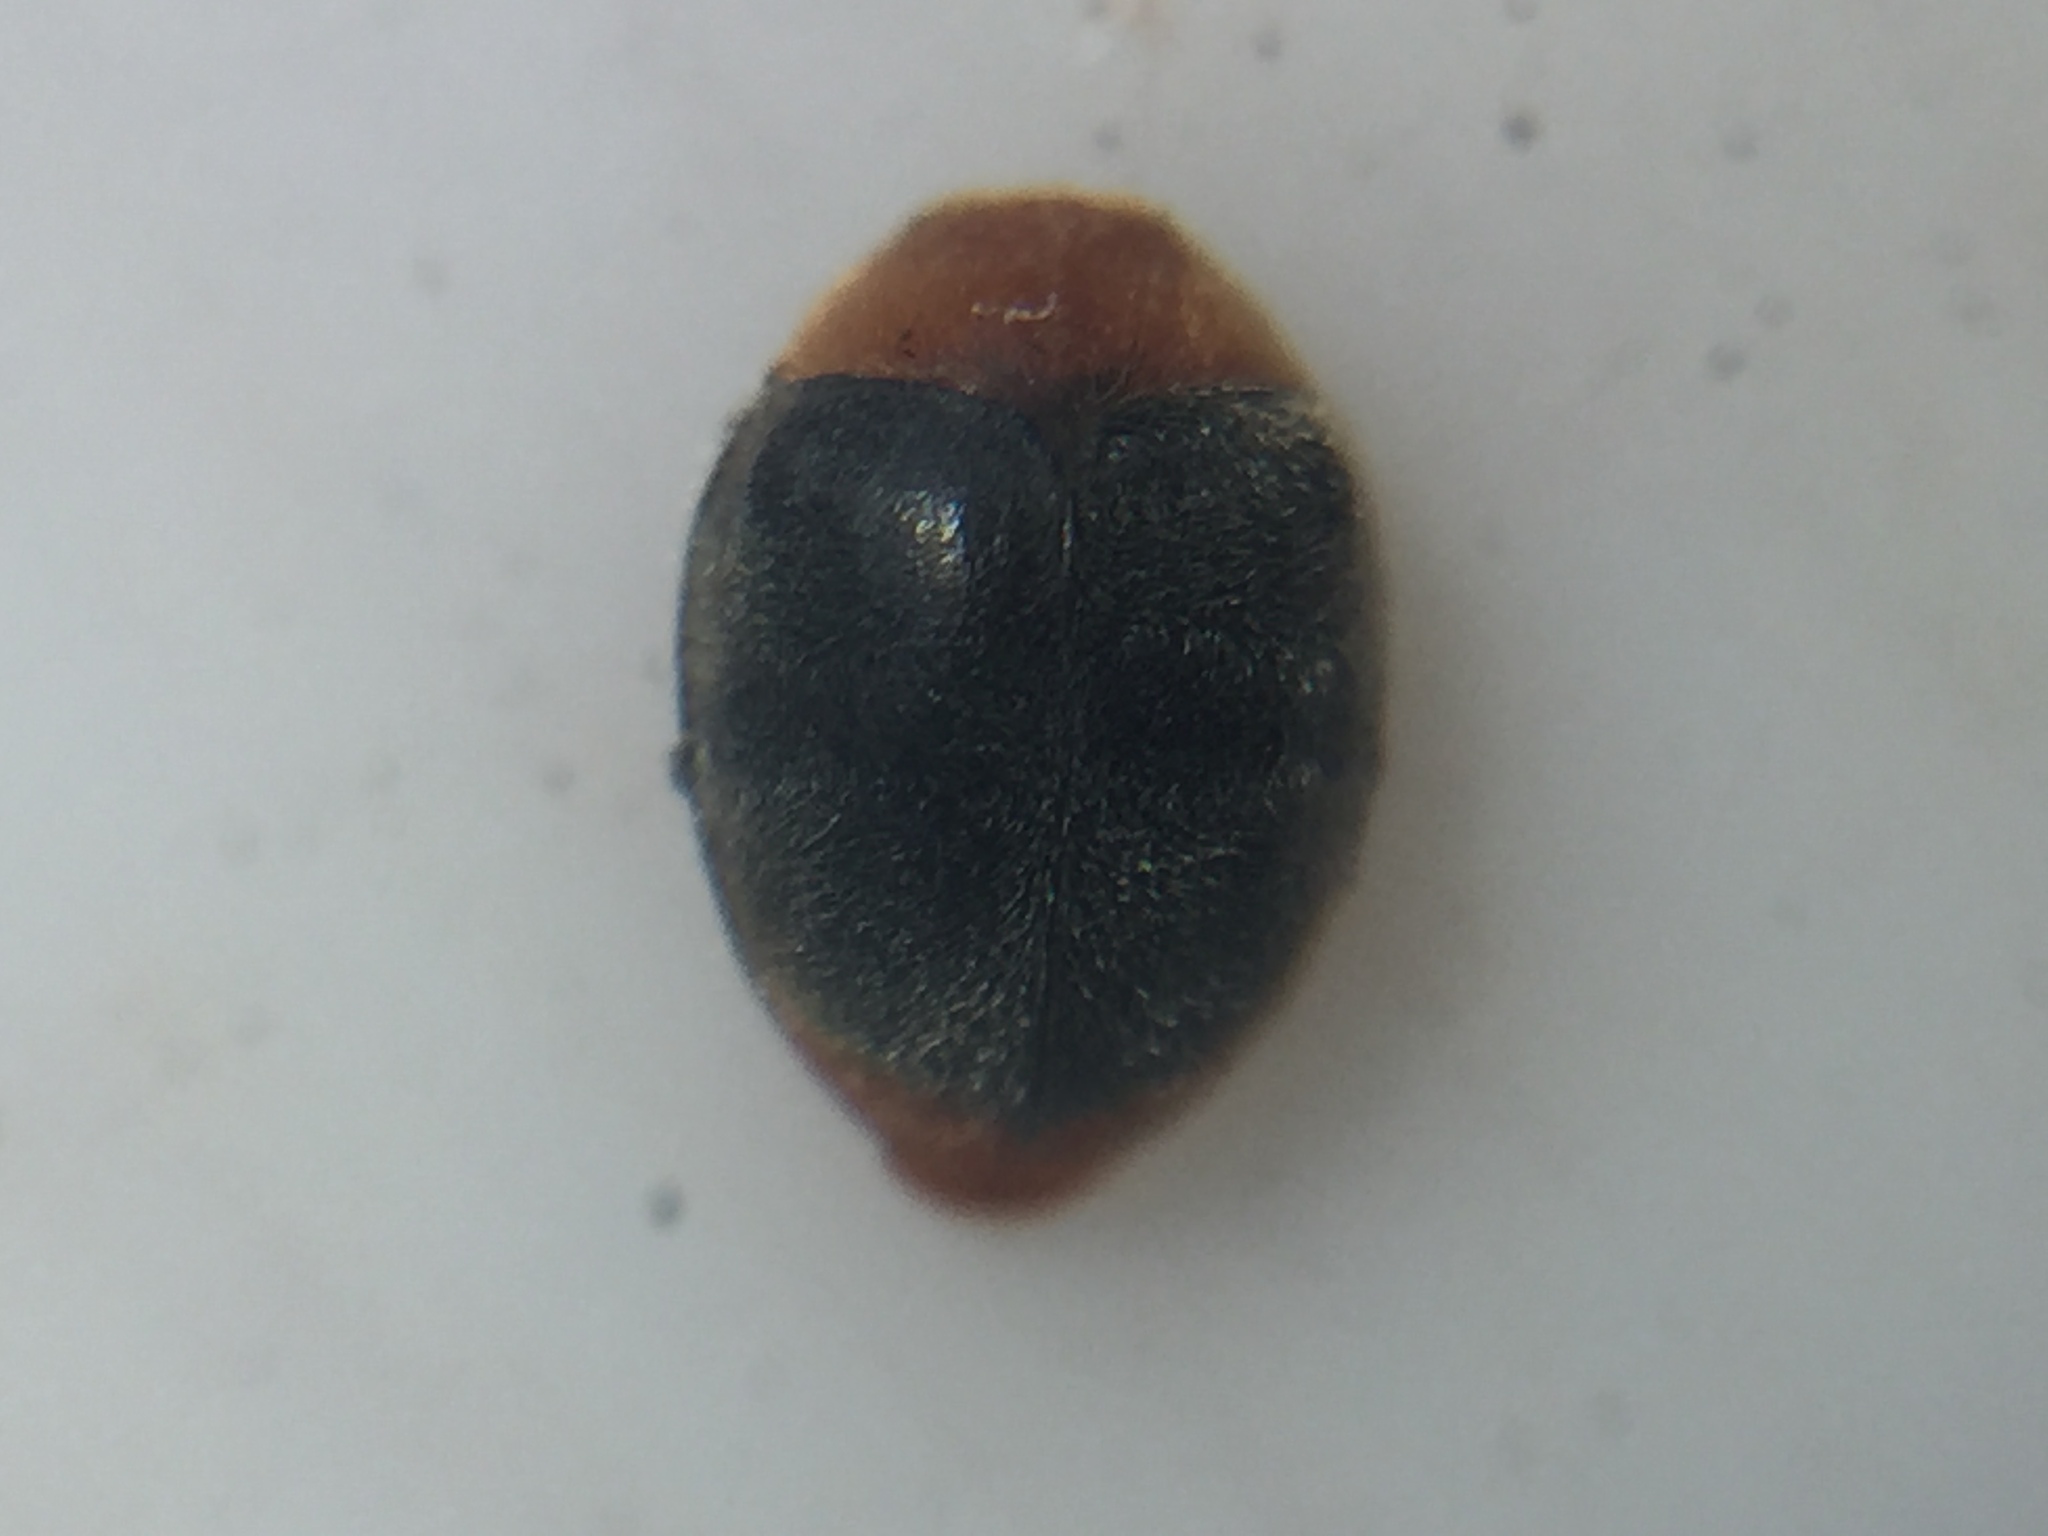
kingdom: Animalia
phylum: Arthropoda
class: Insecta
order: Coleoptera
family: Coccinellidae
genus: Cryptolaemus
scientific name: Cryptolaemus montrouzieri
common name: Mealybug destroyer
